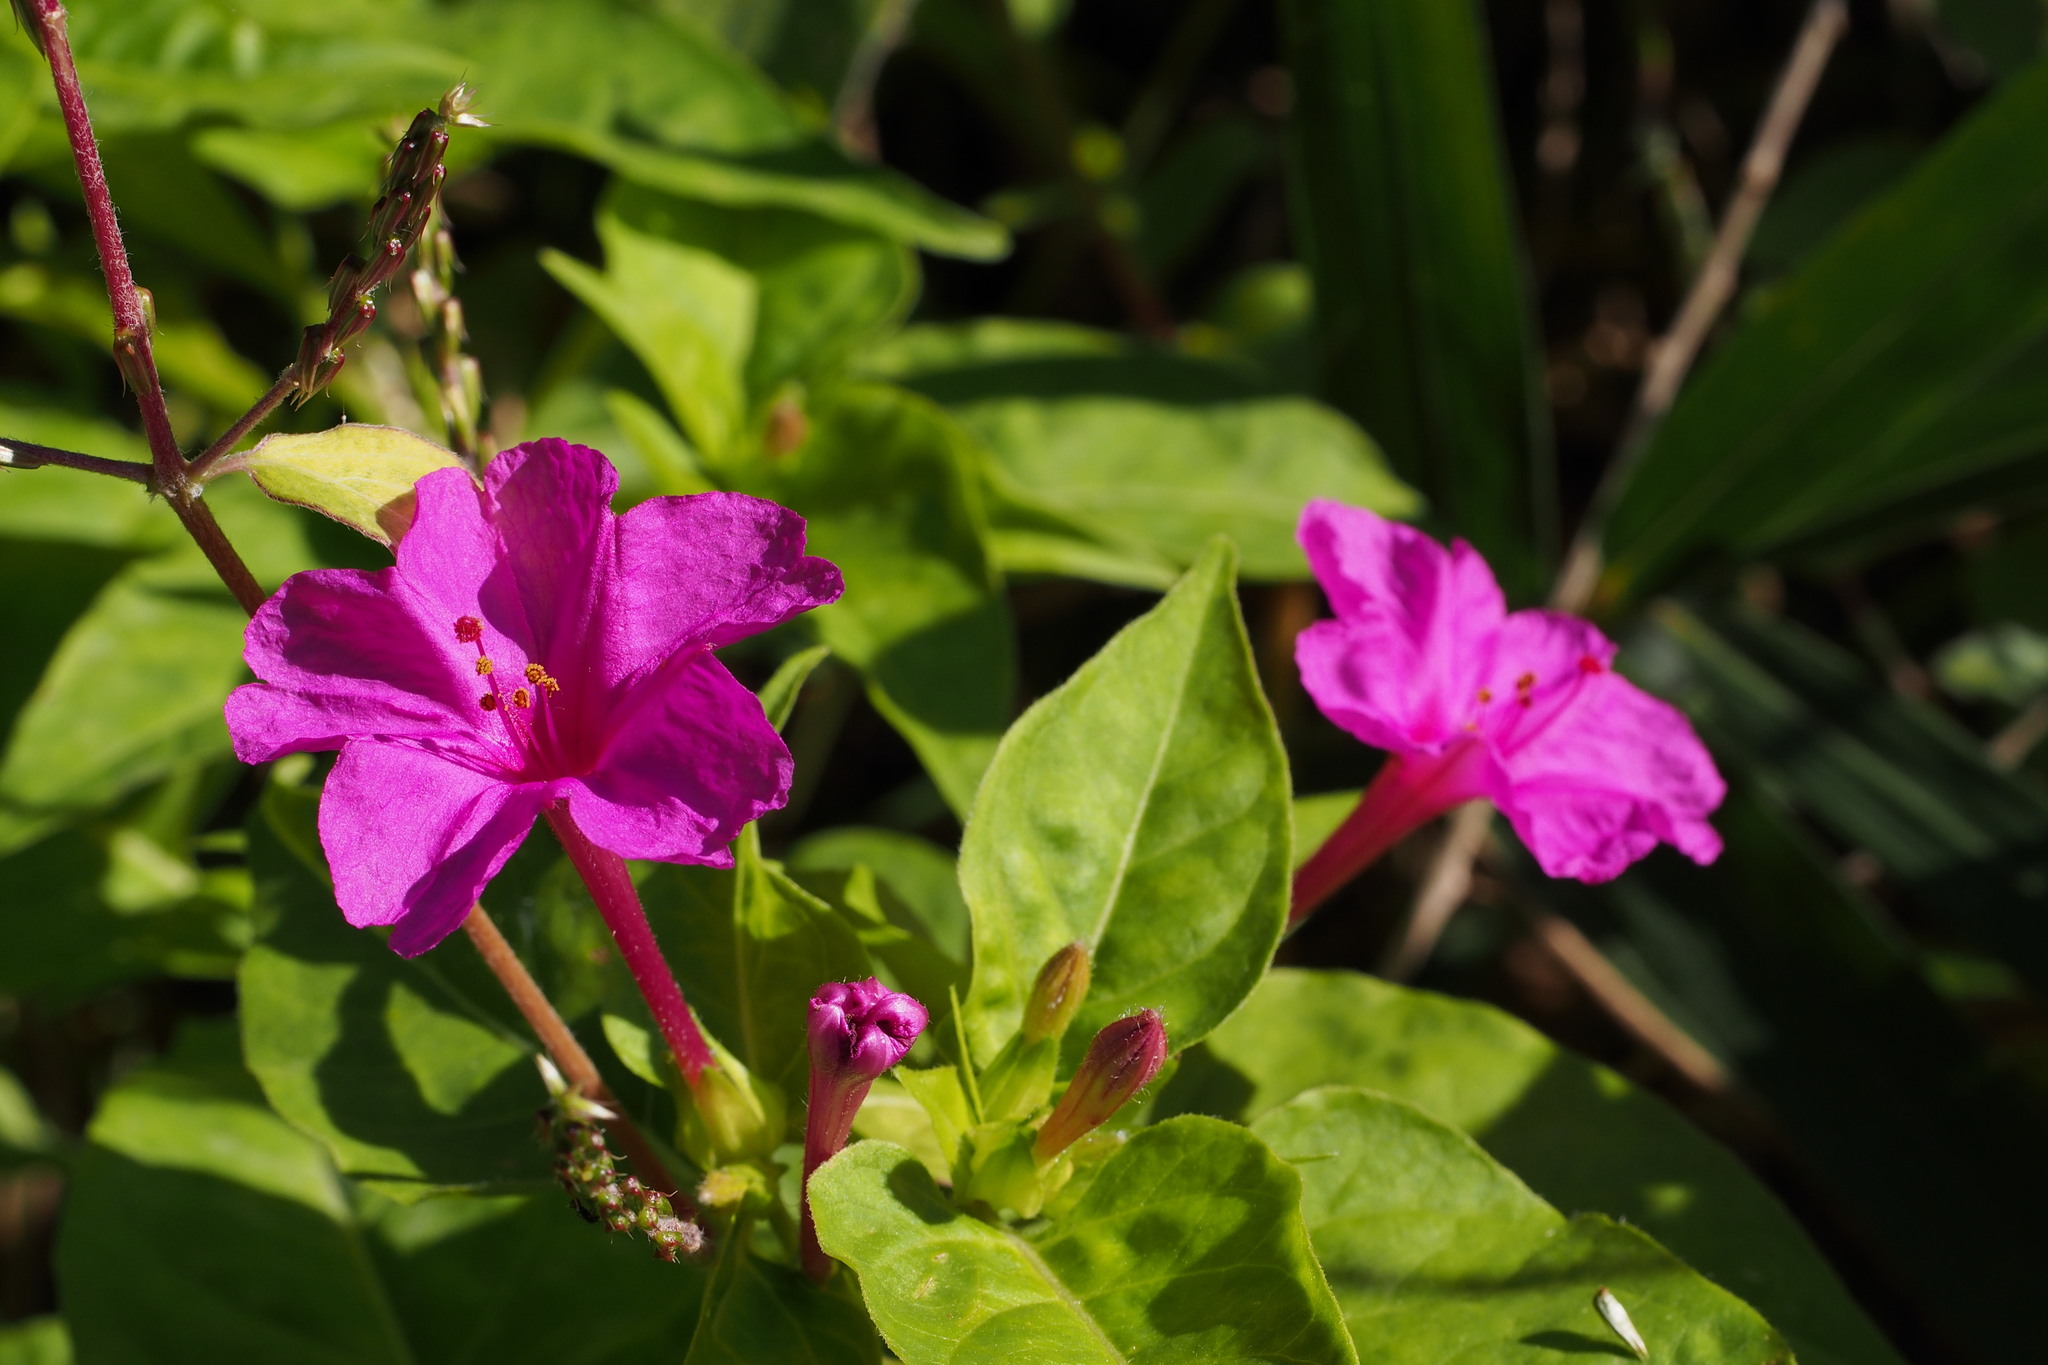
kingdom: Plantae
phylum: Tracheophyta
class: Magnoliopsida
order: Caryophyllales
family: Nyctaginaceae
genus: Mirabilis
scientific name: Mirabilis jalapa
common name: Marvel-of-peru
